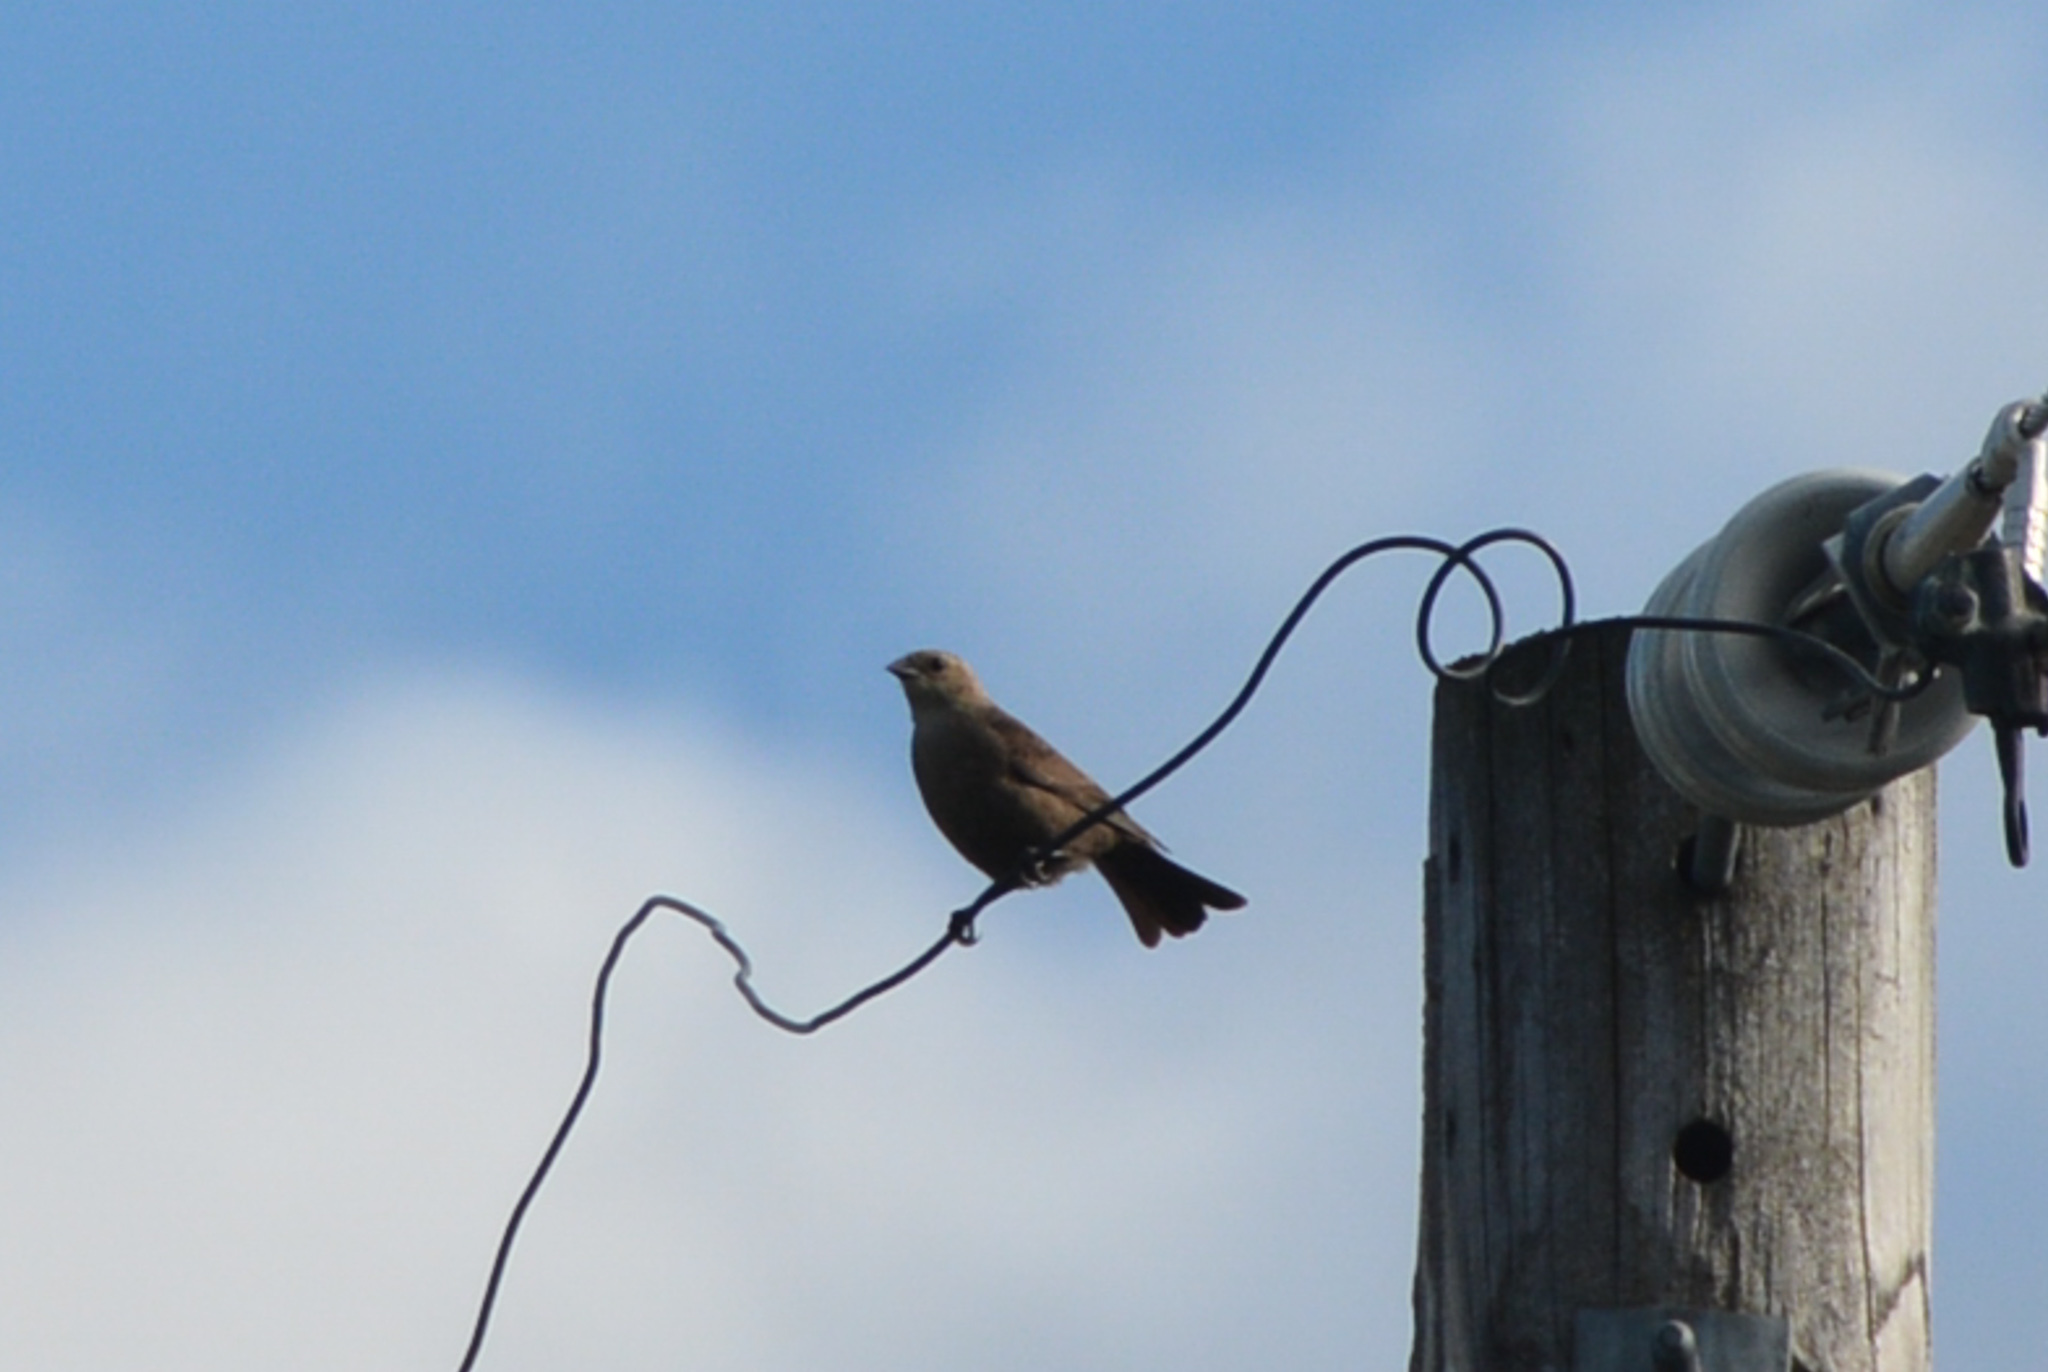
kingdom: Animalia
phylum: Chordata
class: Aves
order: Passeriformes
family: Icteridae
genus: Molothrus
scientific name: Molothrus ater
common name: Brown-headed cowbird
